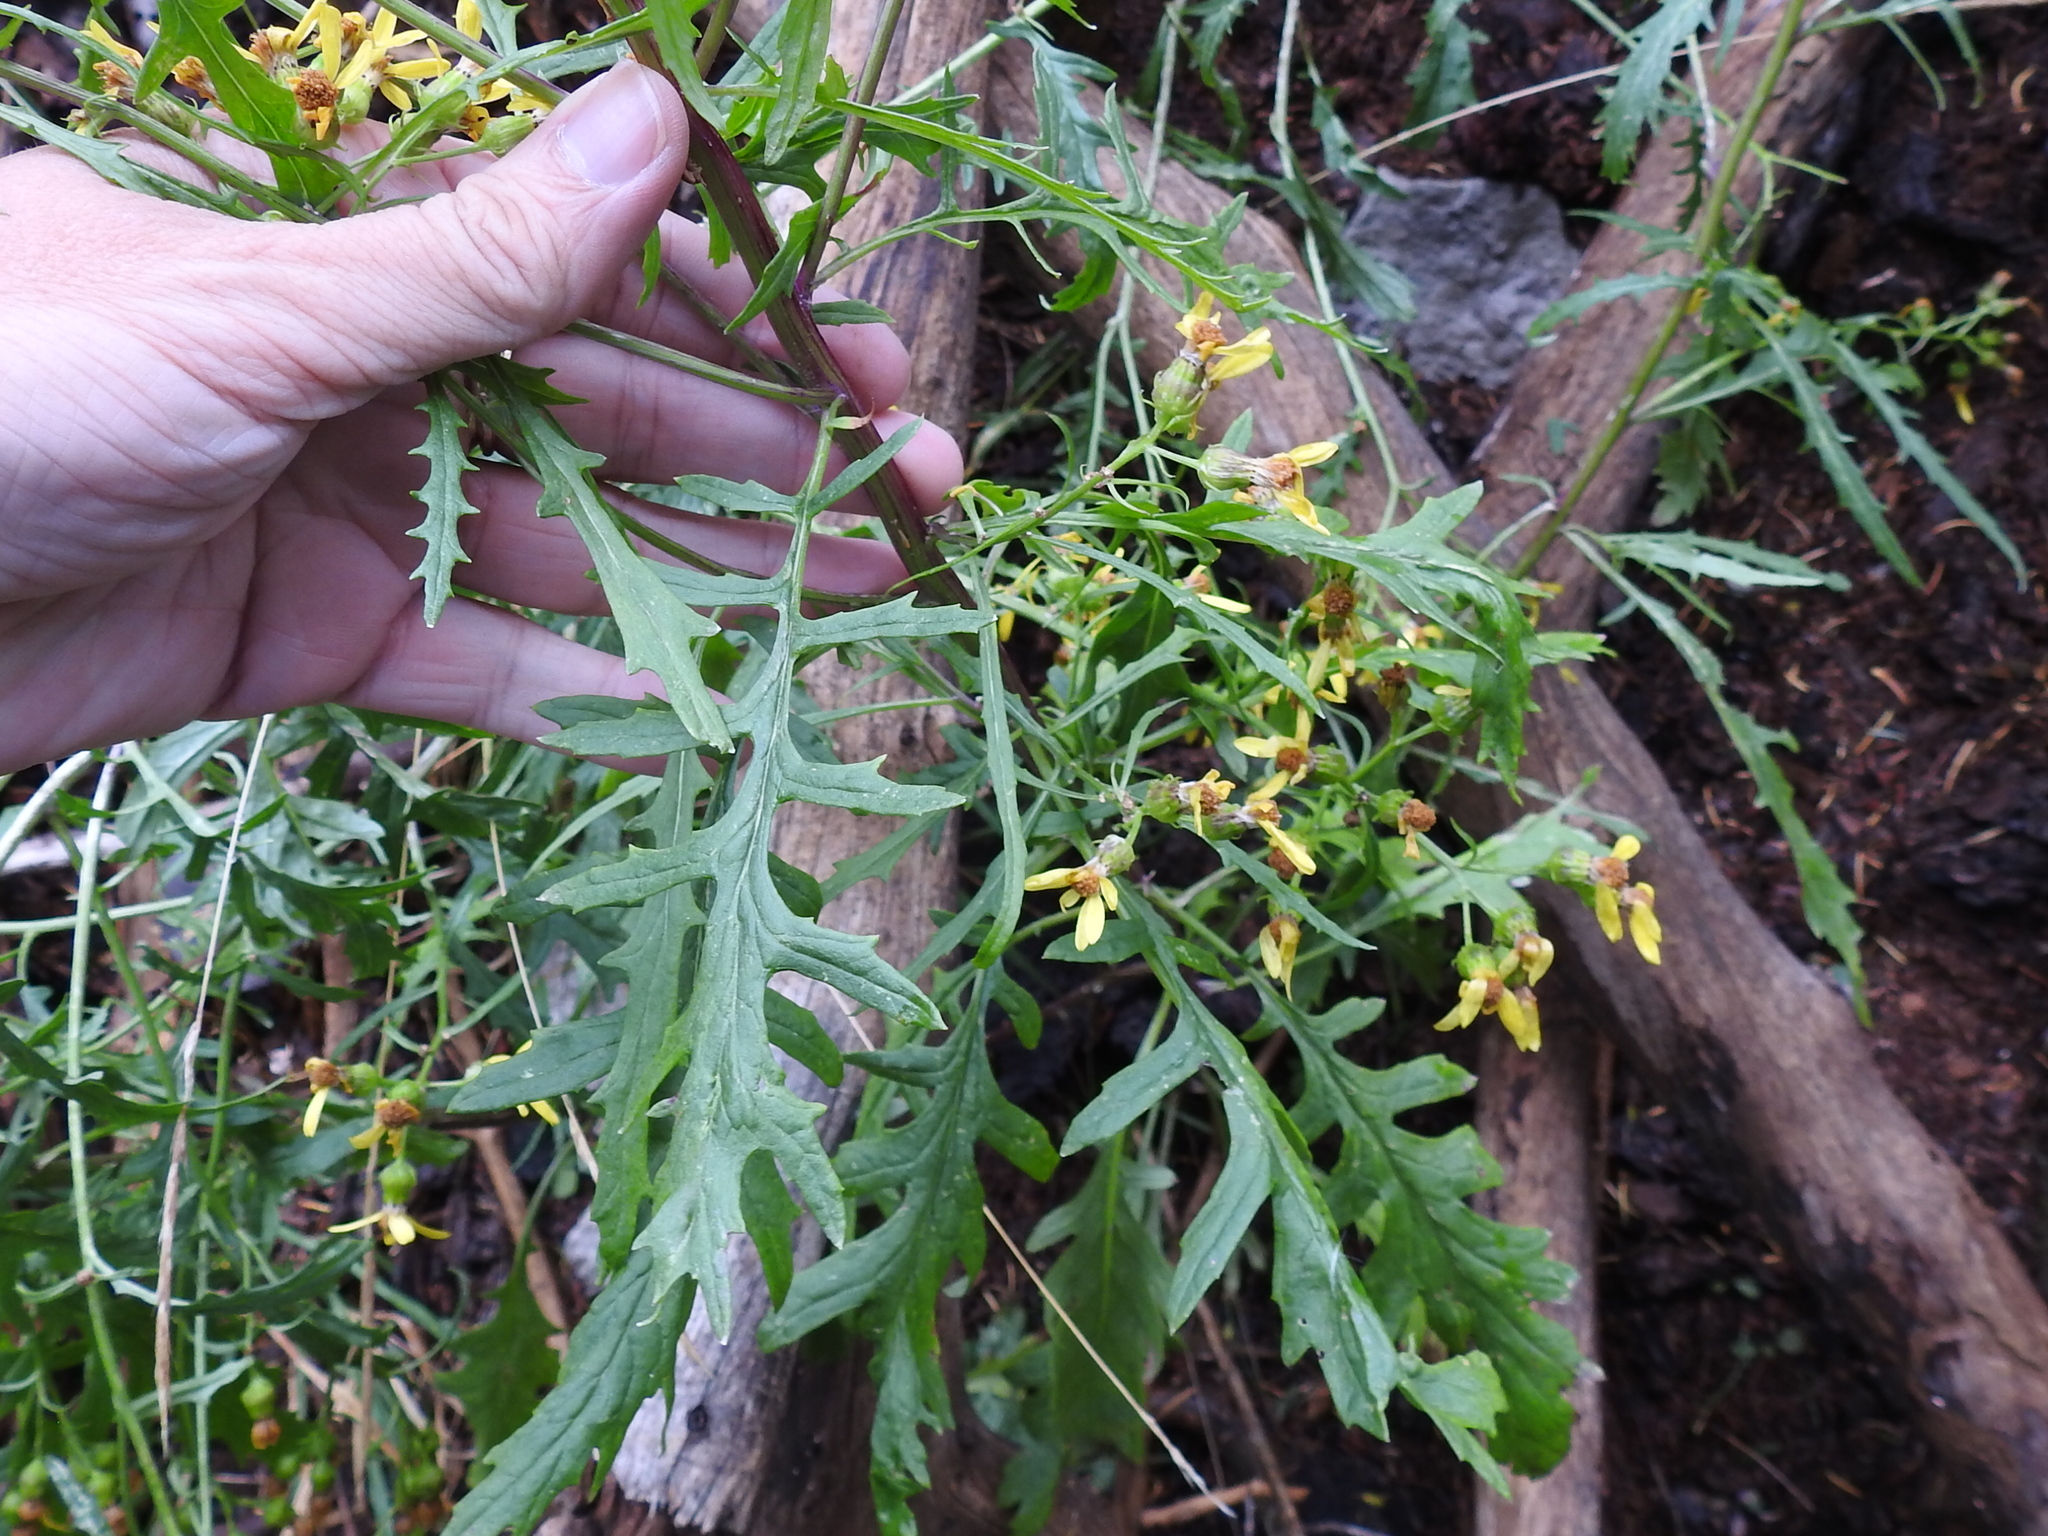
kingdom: Plantae
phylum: Tracheophyta
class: Magnoliopsida
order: Asterales
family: Asteraceae
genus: Senecio
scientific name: Senecio eremophilus
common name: Desert ragwort
